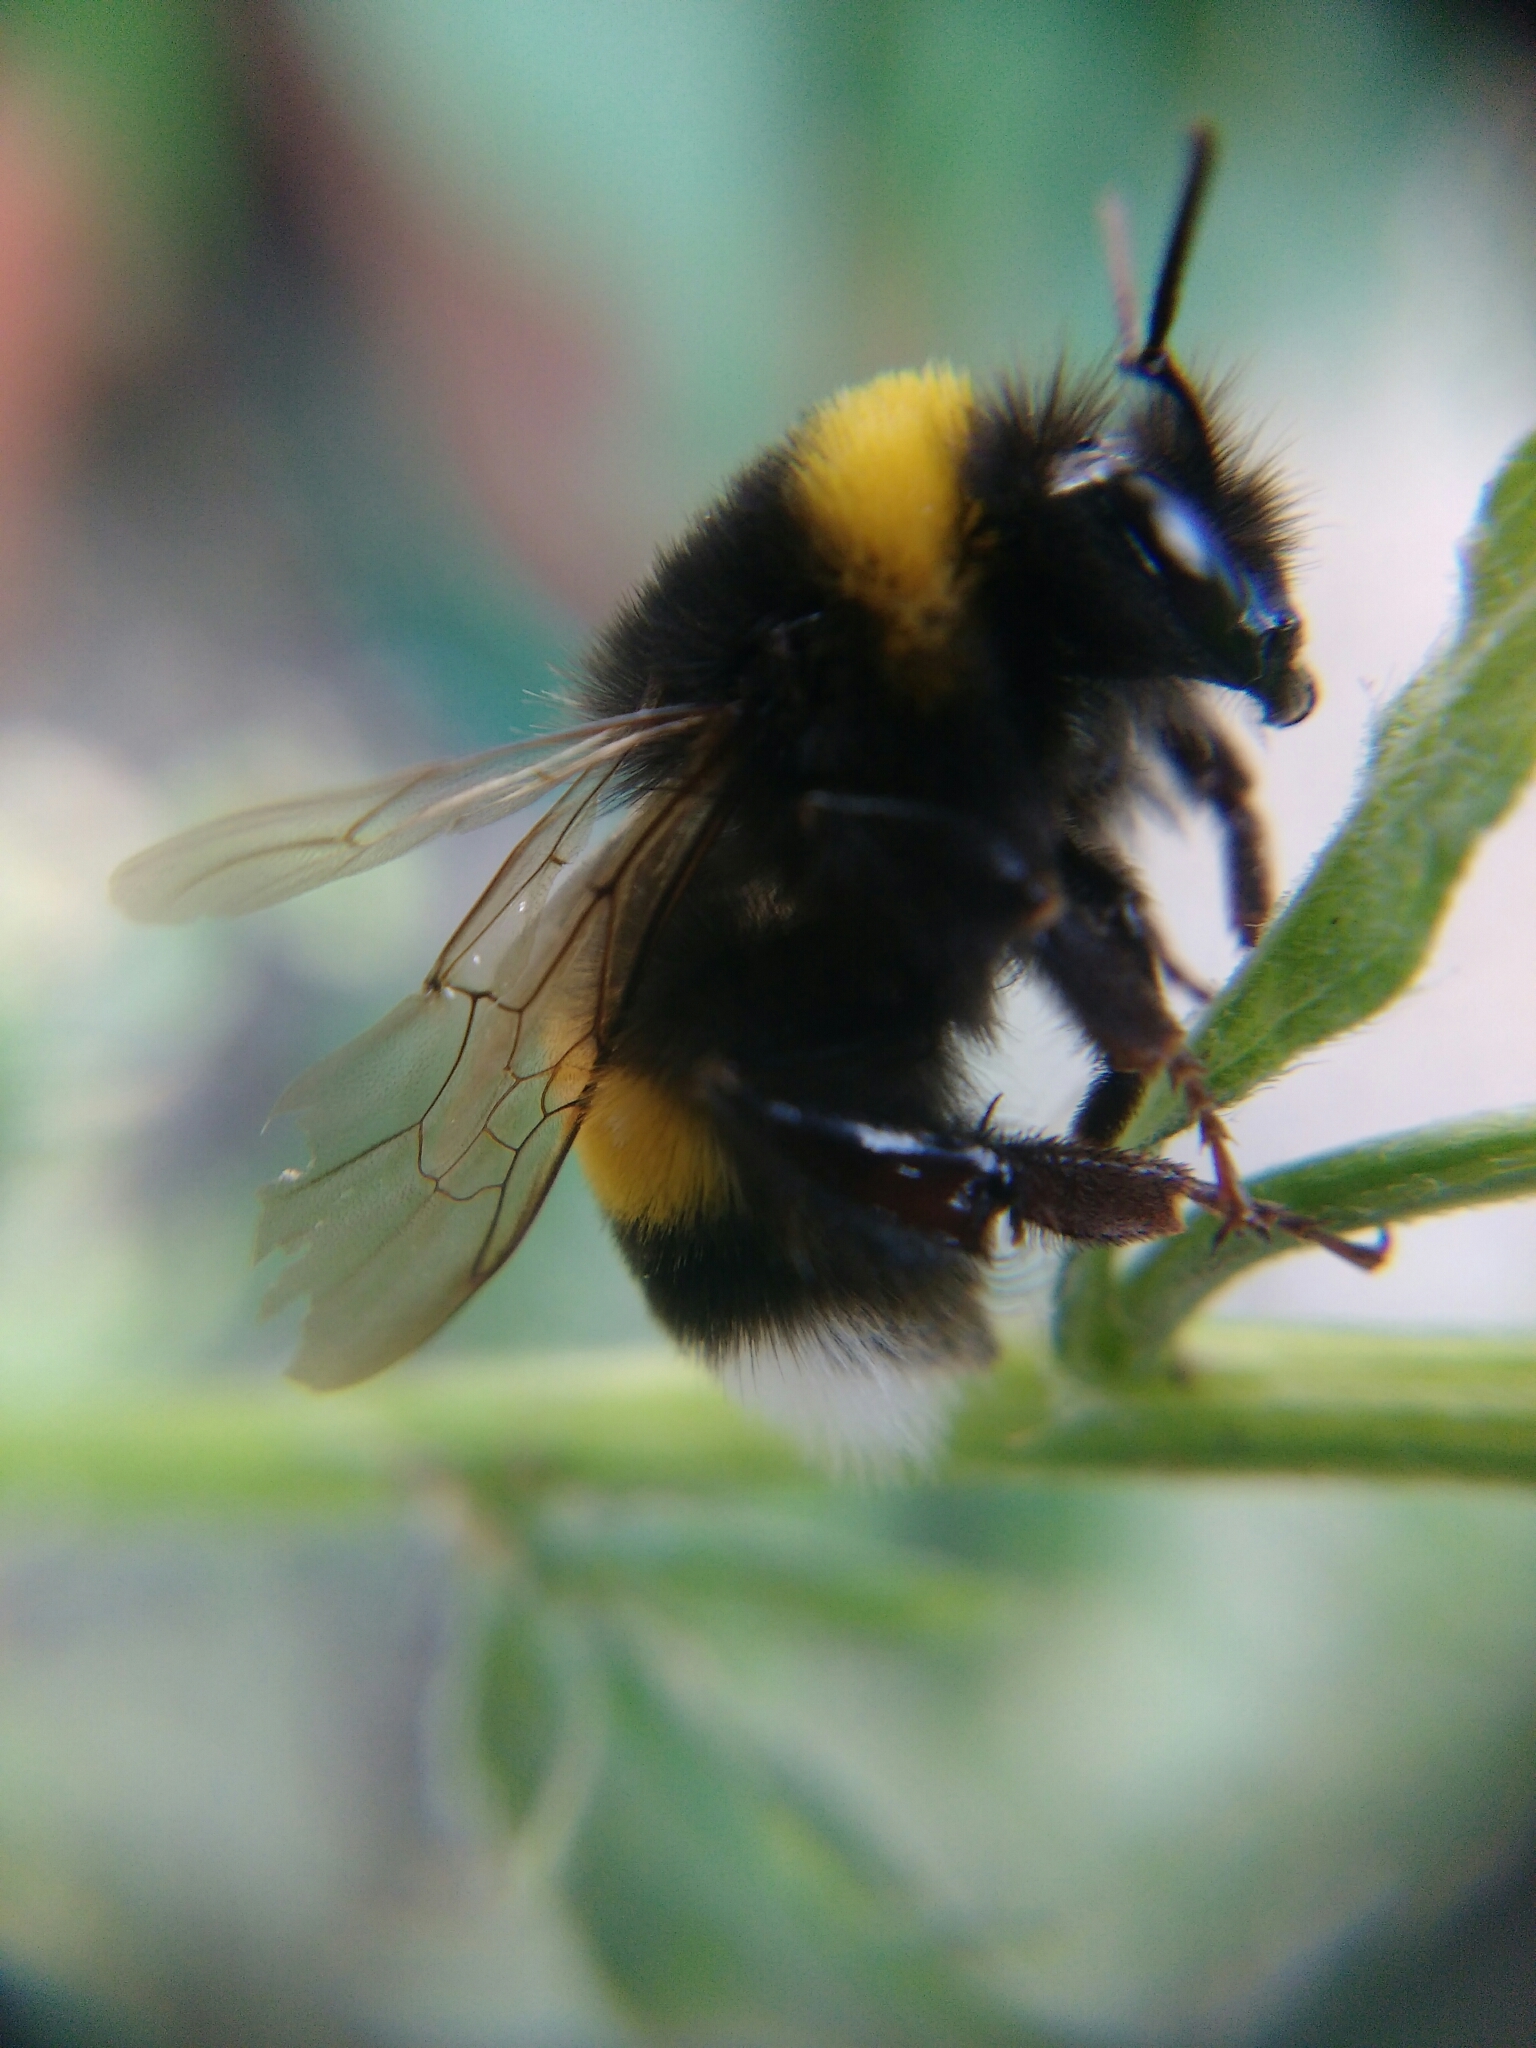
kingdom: Animalia
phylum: Arthropoda
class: Insecta
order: Hymenoptera
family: Apidae
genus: Bombus
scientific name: Bombus
